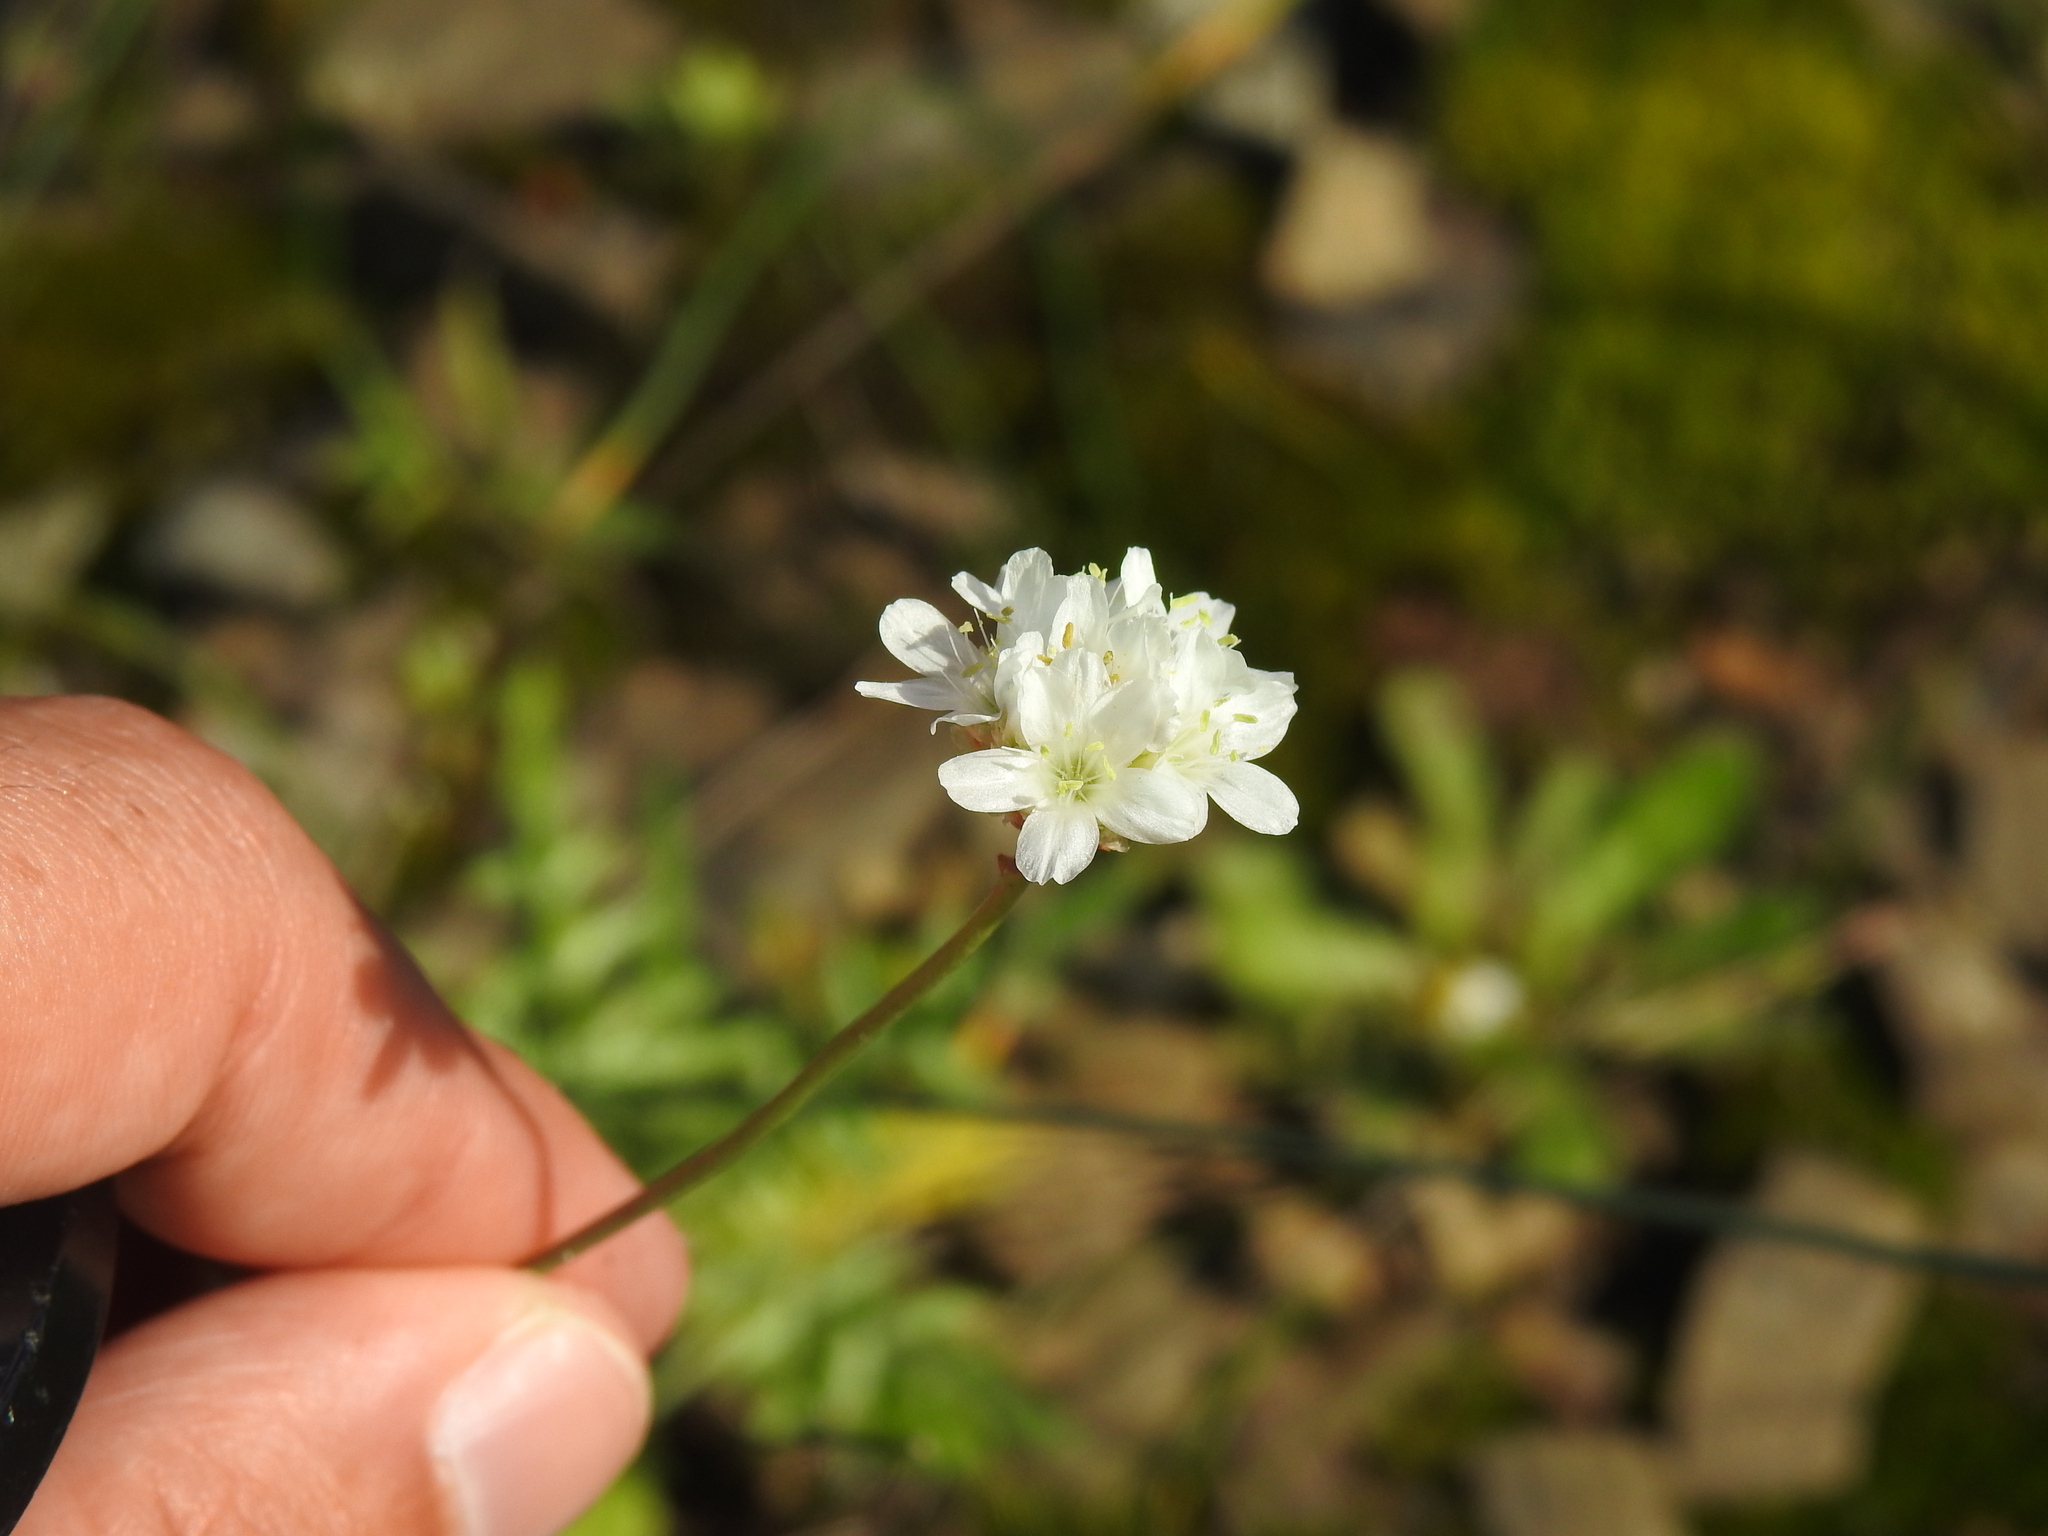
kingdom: Plantae
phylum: Tracheophyta
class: Magnoliopsida
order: Caryophyllales
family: Plumbaginaceae
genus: Armeria
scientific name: Armeria linkiana
